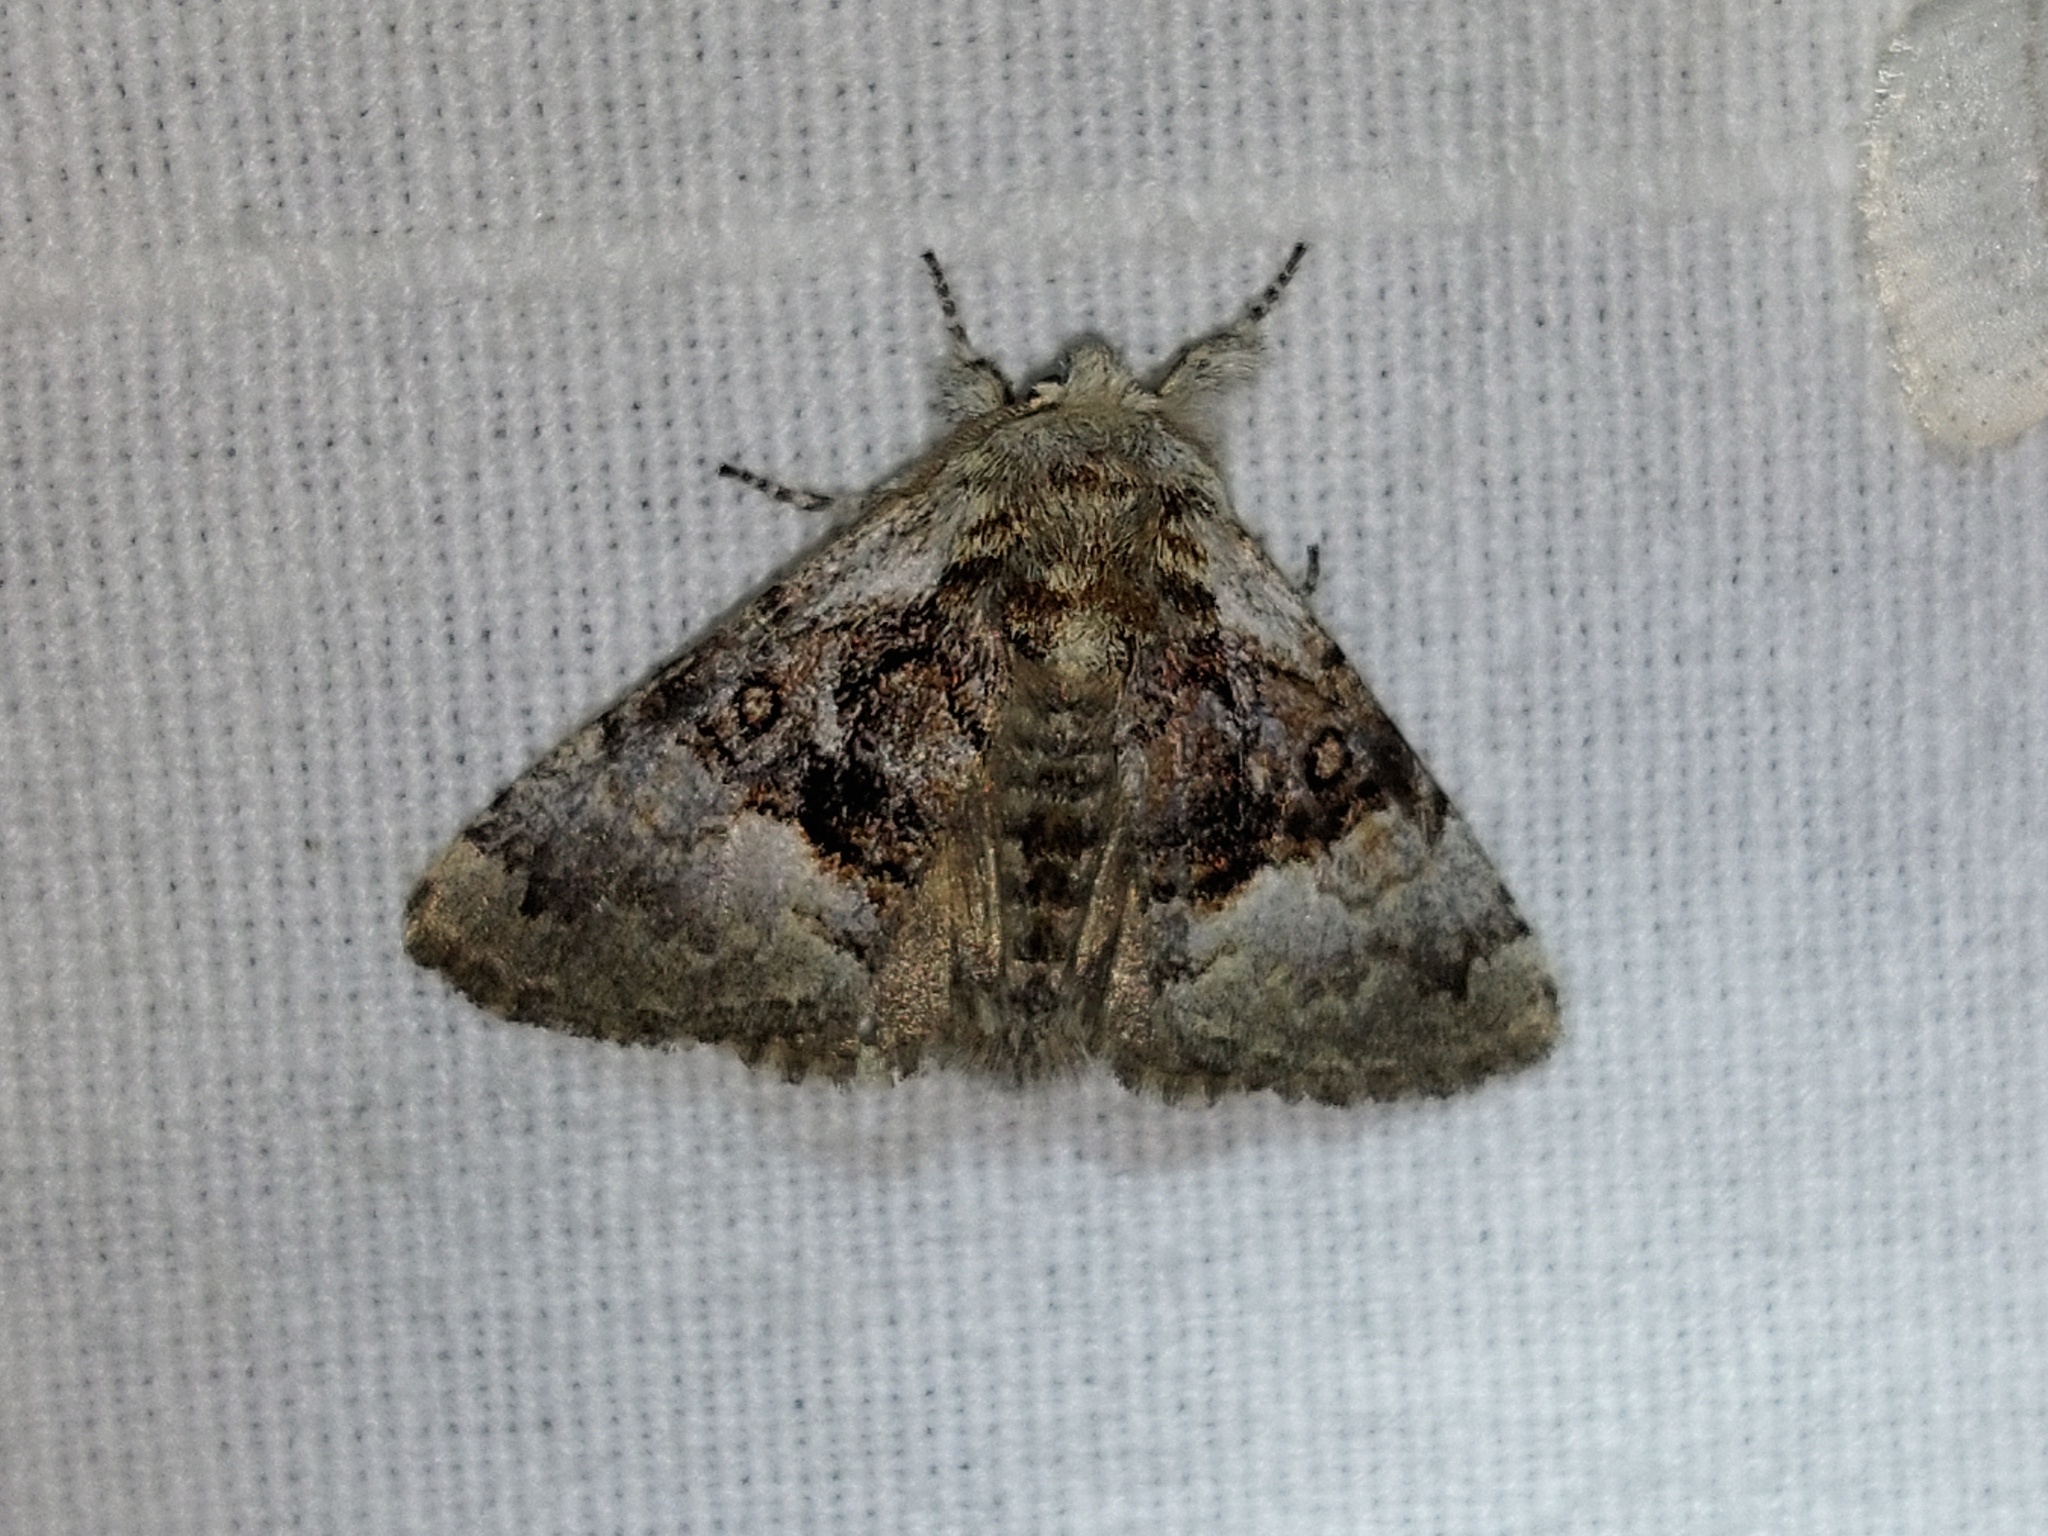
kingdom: Animalia
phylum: Arthropoda
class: Insecta
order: Lepidoptera
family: Noctuidae
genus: Colocasia
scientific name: Colocasia coryli
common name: Nut-tree tussock
